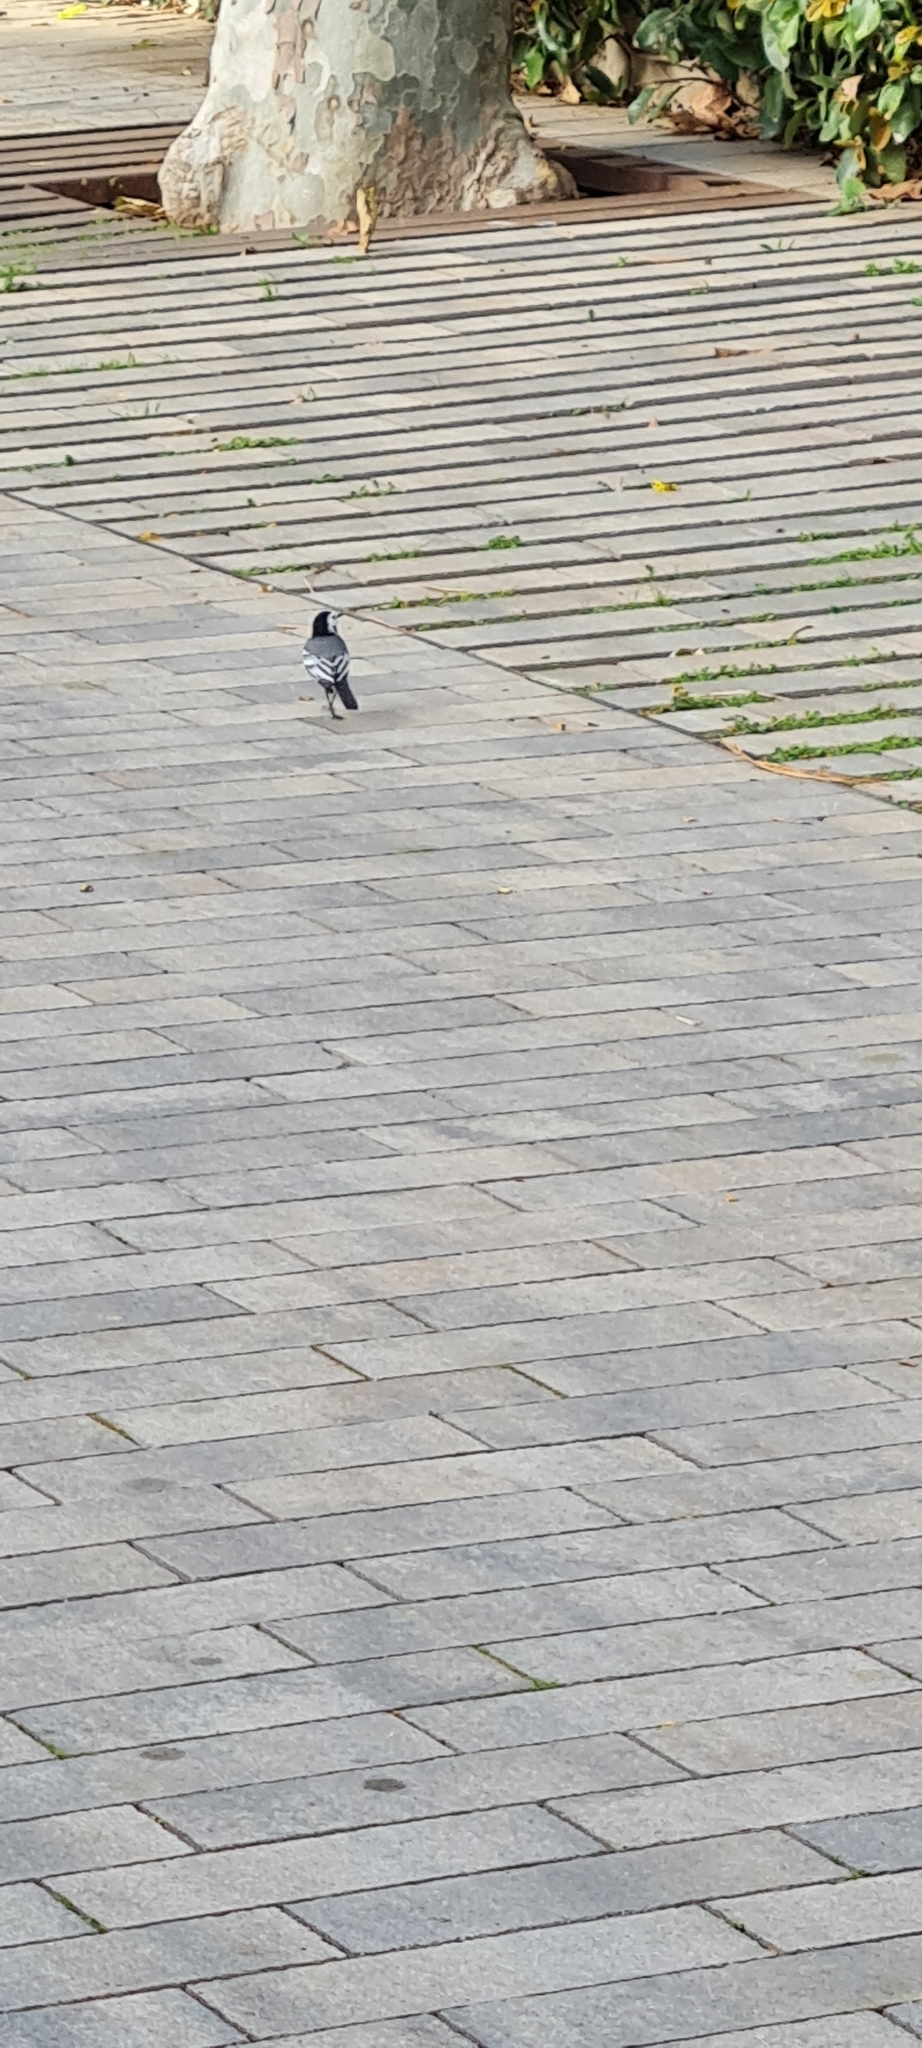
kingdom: Animalia
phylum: Chordata
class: Aves
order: Passeriformes
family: Motacillidae
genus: Motacilla
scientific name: Motacilla alba
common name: White wagtail
